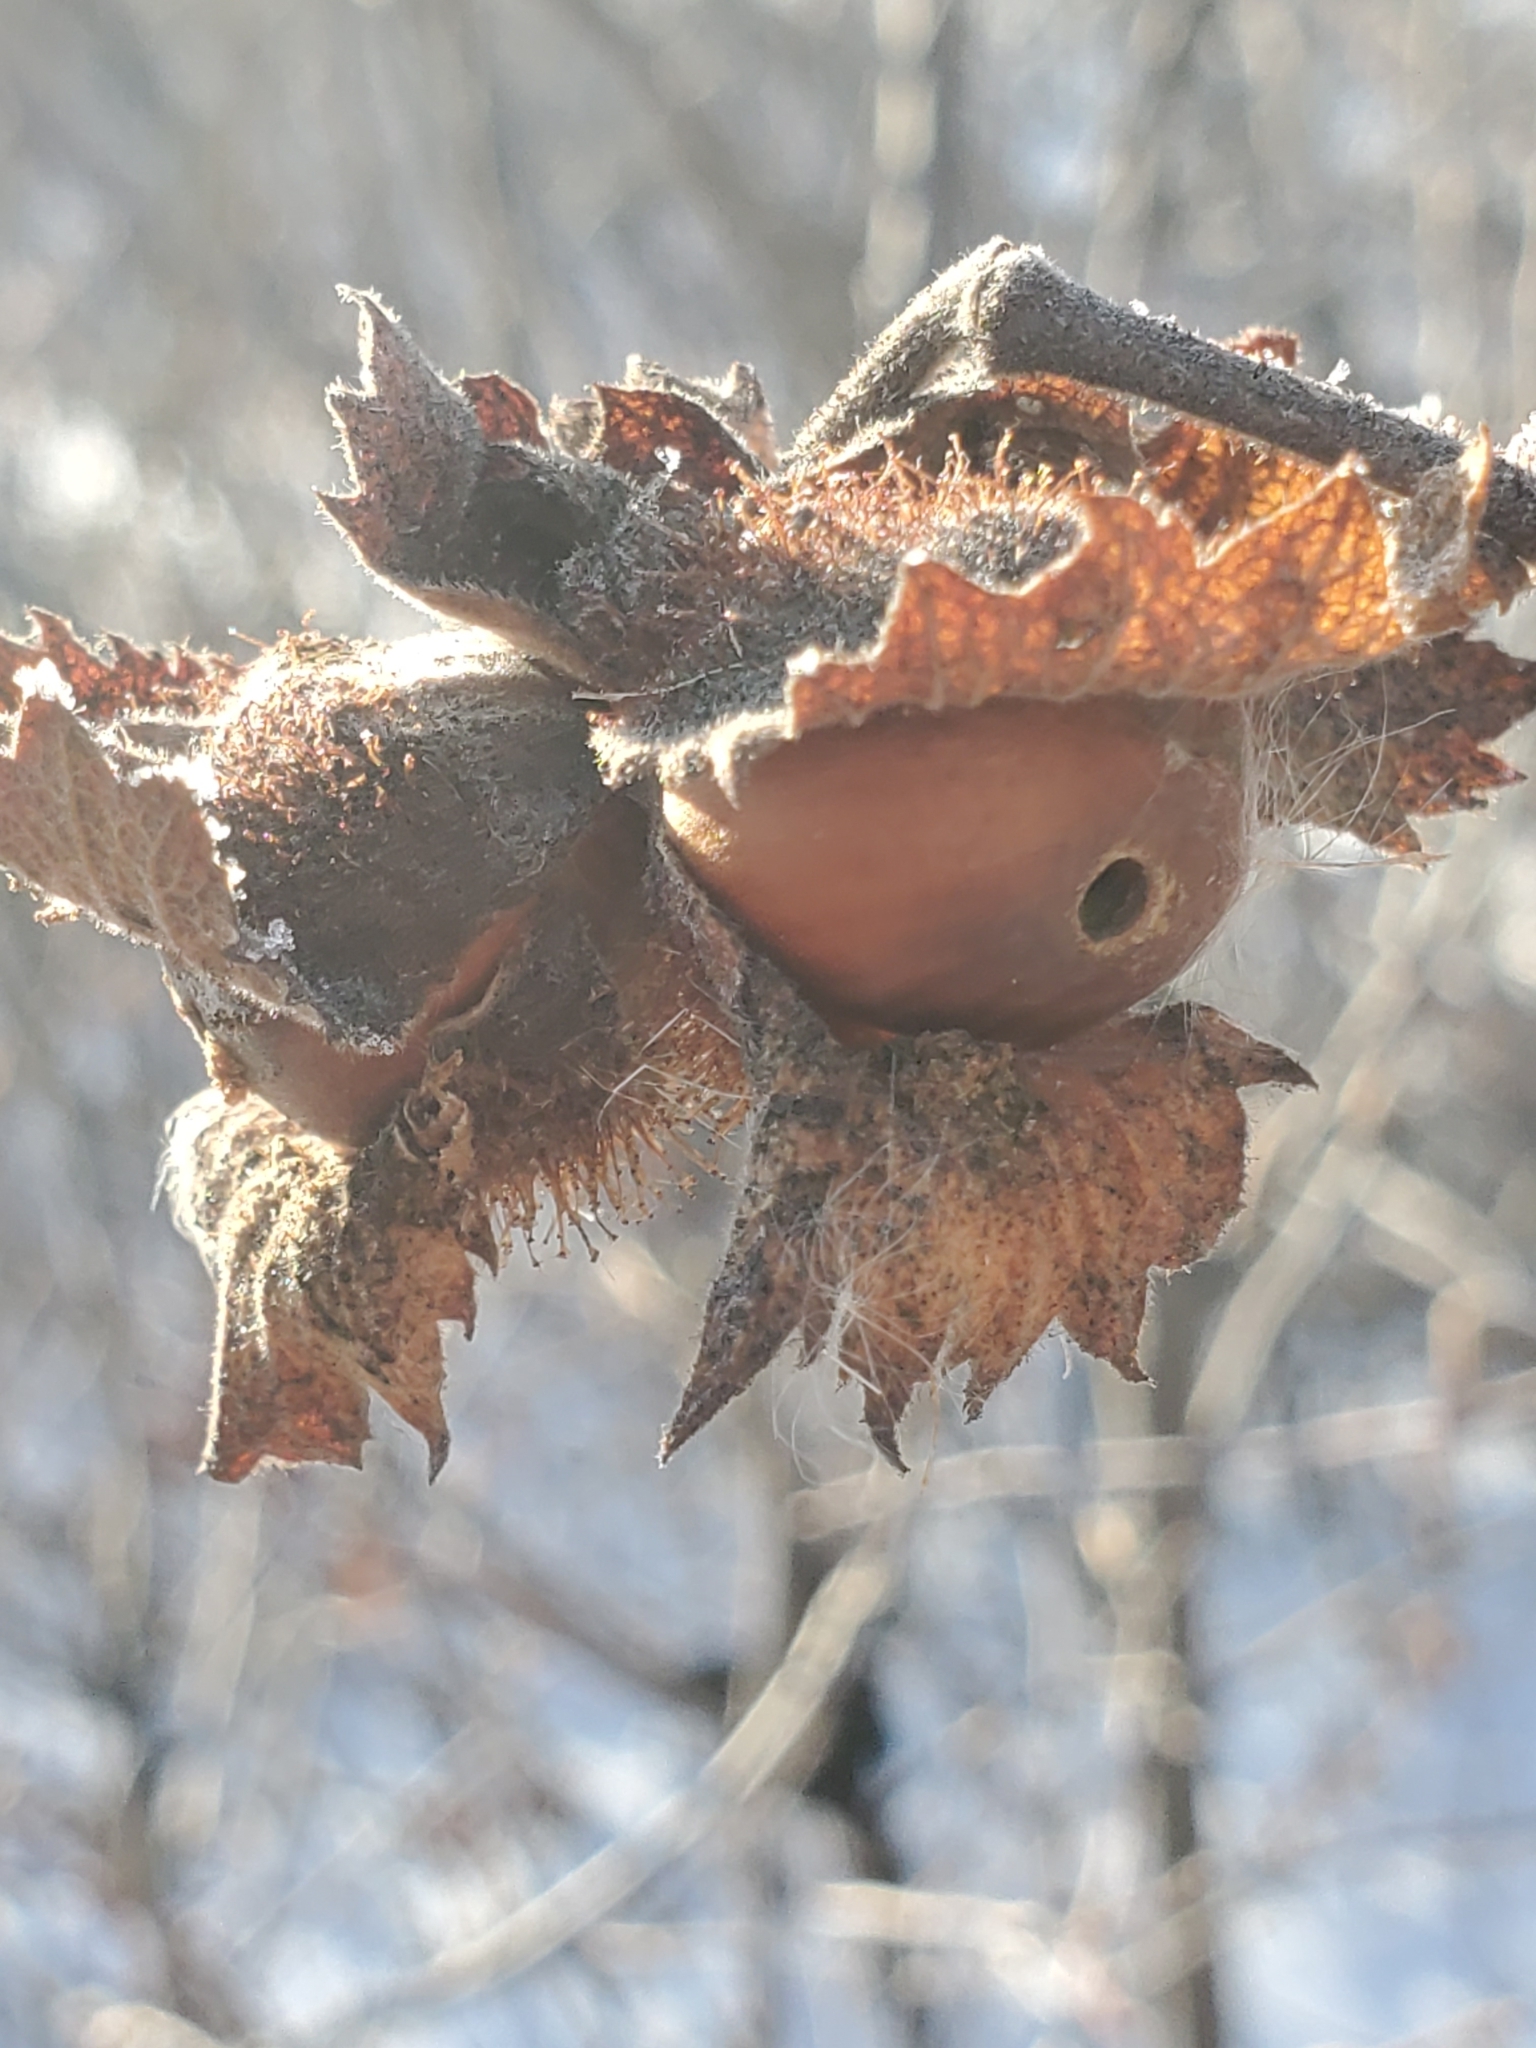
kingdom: Plantae
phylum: Tracheophyta
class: Magnoliopsida
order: Fagales
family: Betulaceae
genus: Corylus
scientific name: Corylus americana
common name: American hazel
